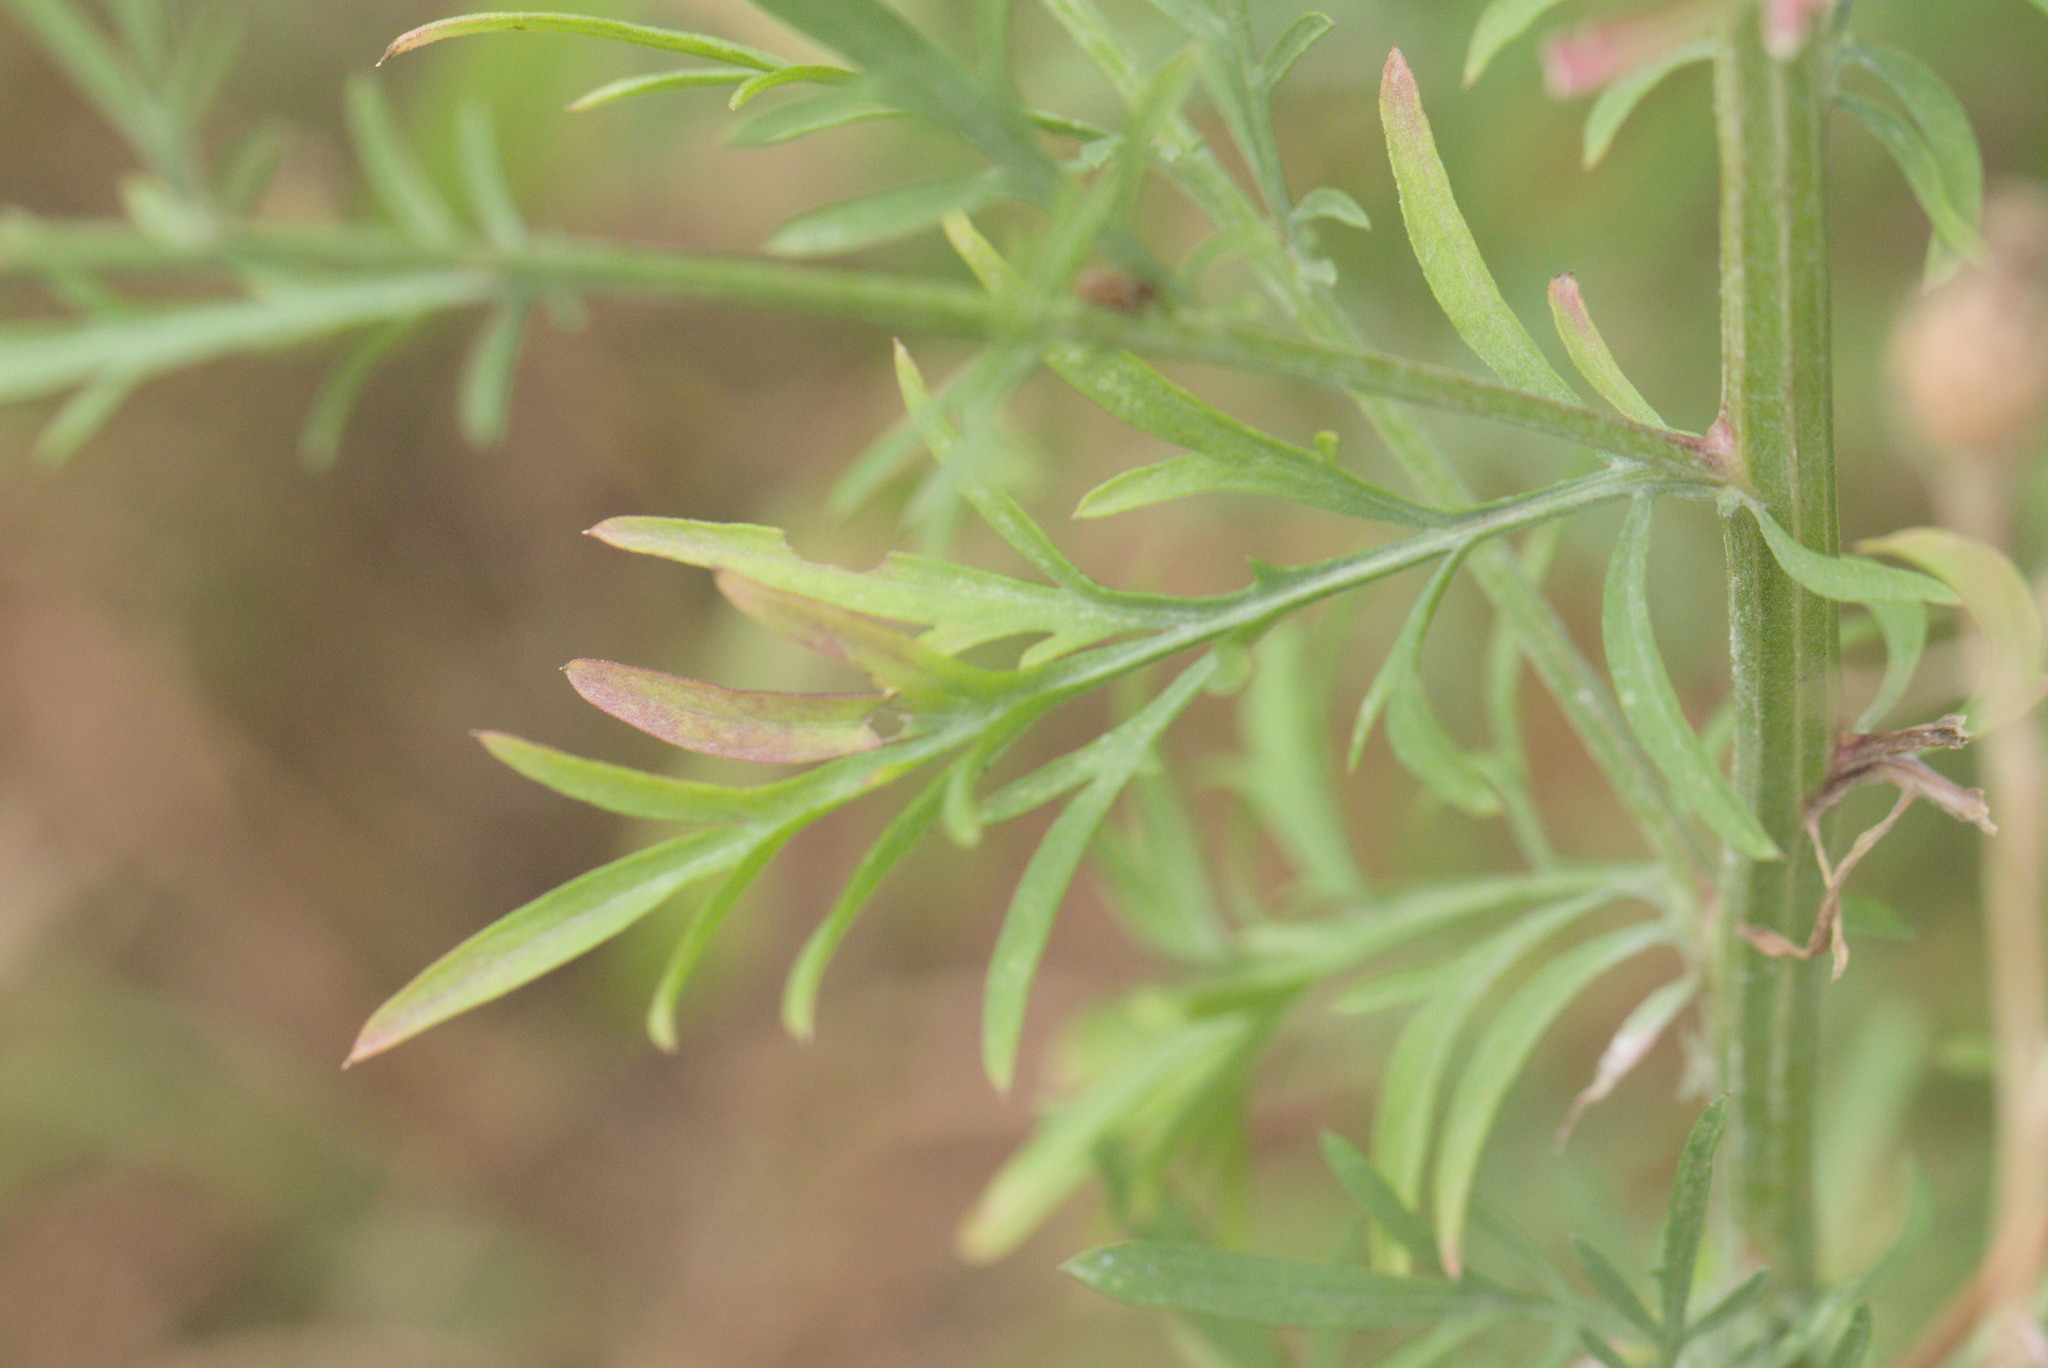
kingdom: Plantae
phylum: Tracheophyta
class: Magnoliopsida
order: Asterales
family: Asteraceae
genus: Centaurea
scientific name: Centaurea stoebe
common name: Spotted knapweed
